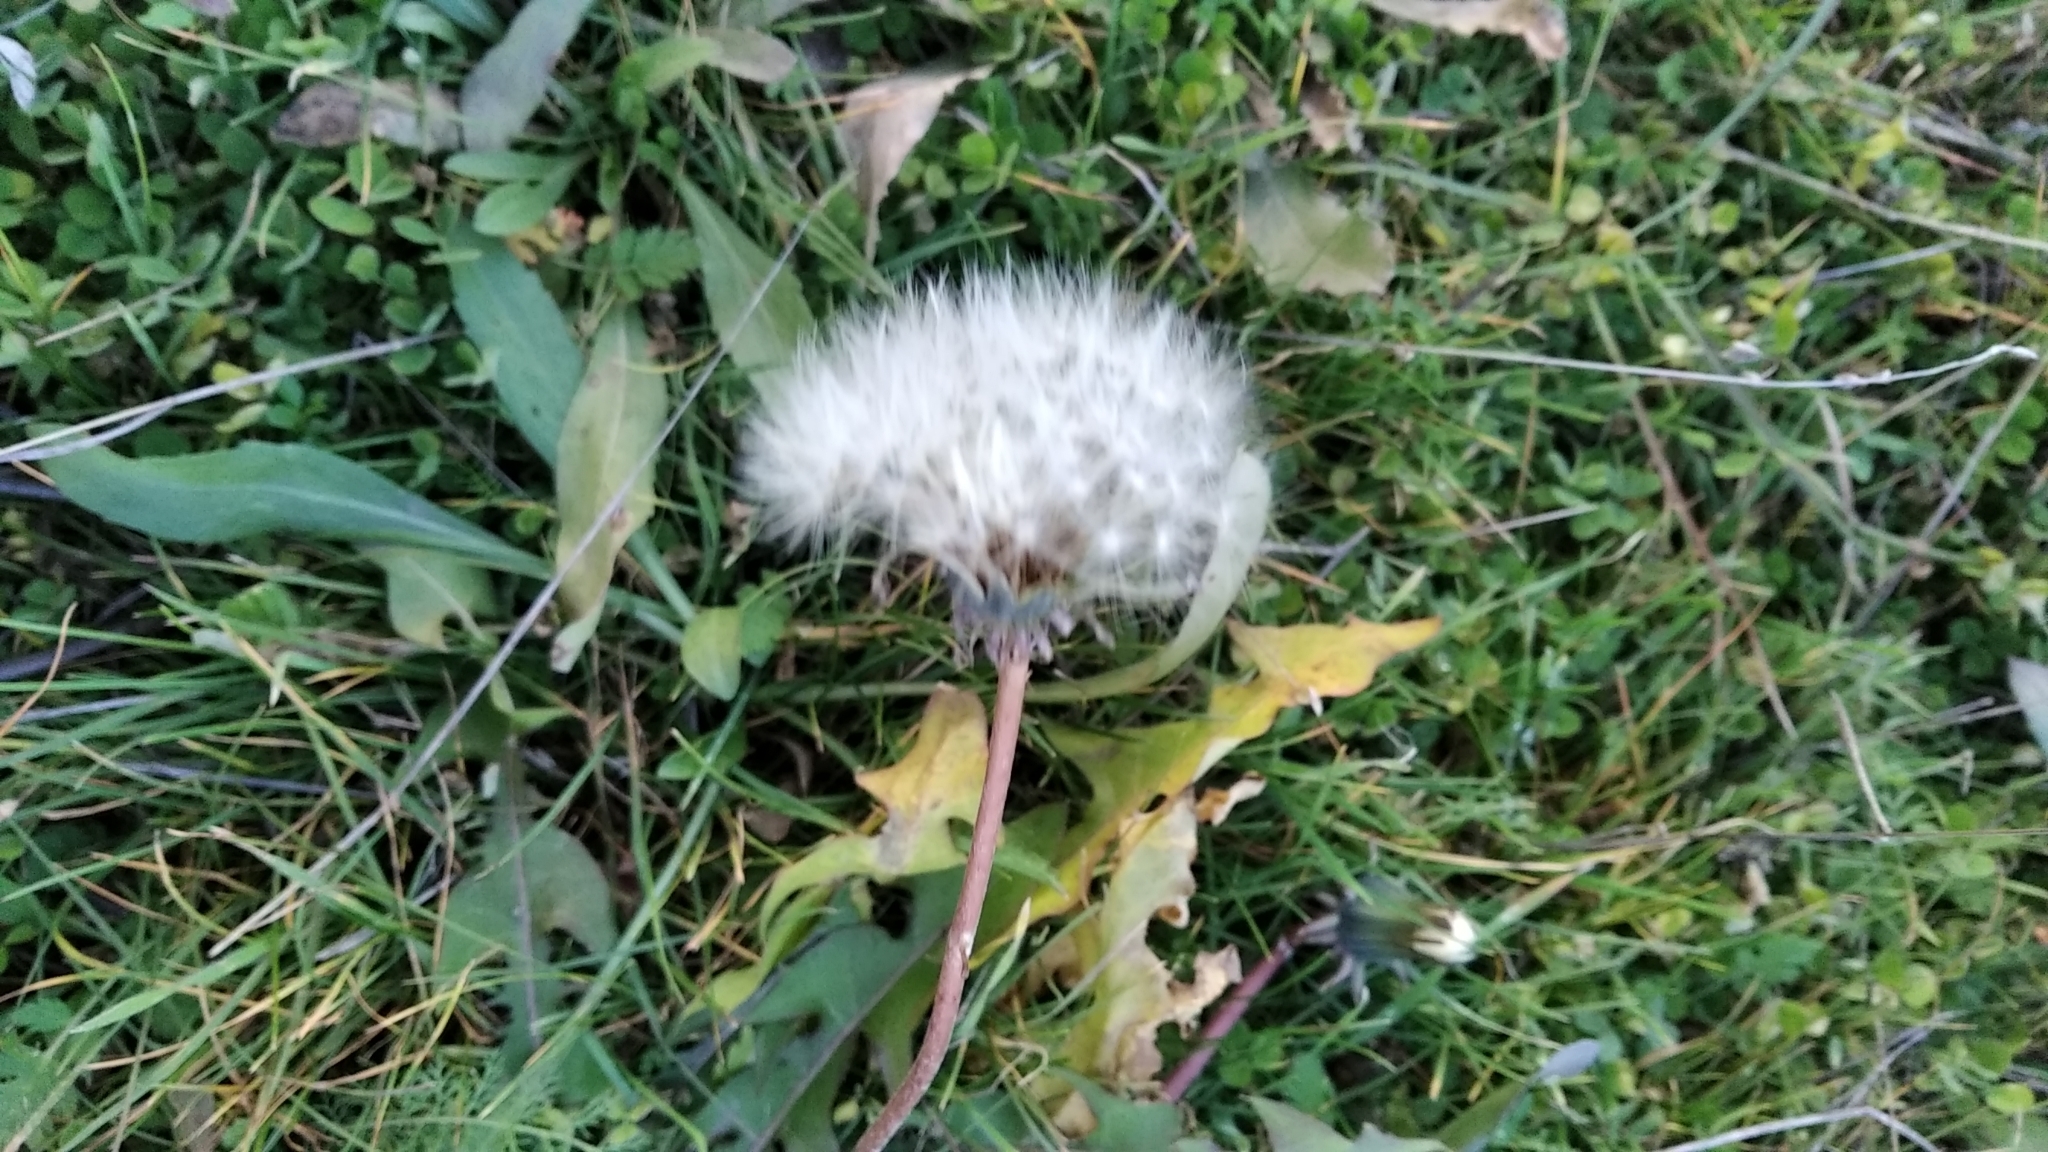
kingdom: Plantae
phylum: Tracheophyta
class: Magnoliopsida
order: Asterales
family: Asteraceae
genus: Taraxacum
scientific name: Taraxacum officinale
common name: Common dandelion
